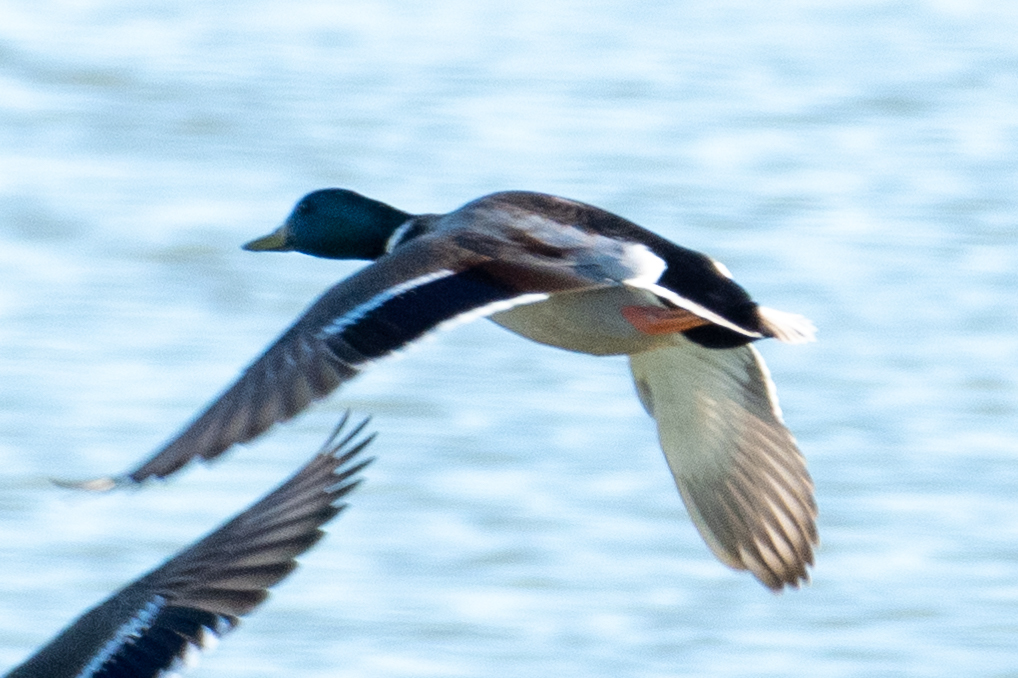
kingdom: Animalia
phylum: Chordata
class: Aves
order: Anseriformes
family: Anatidae
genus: Anas
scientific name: Anas platyrhynchos
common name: Mallard
